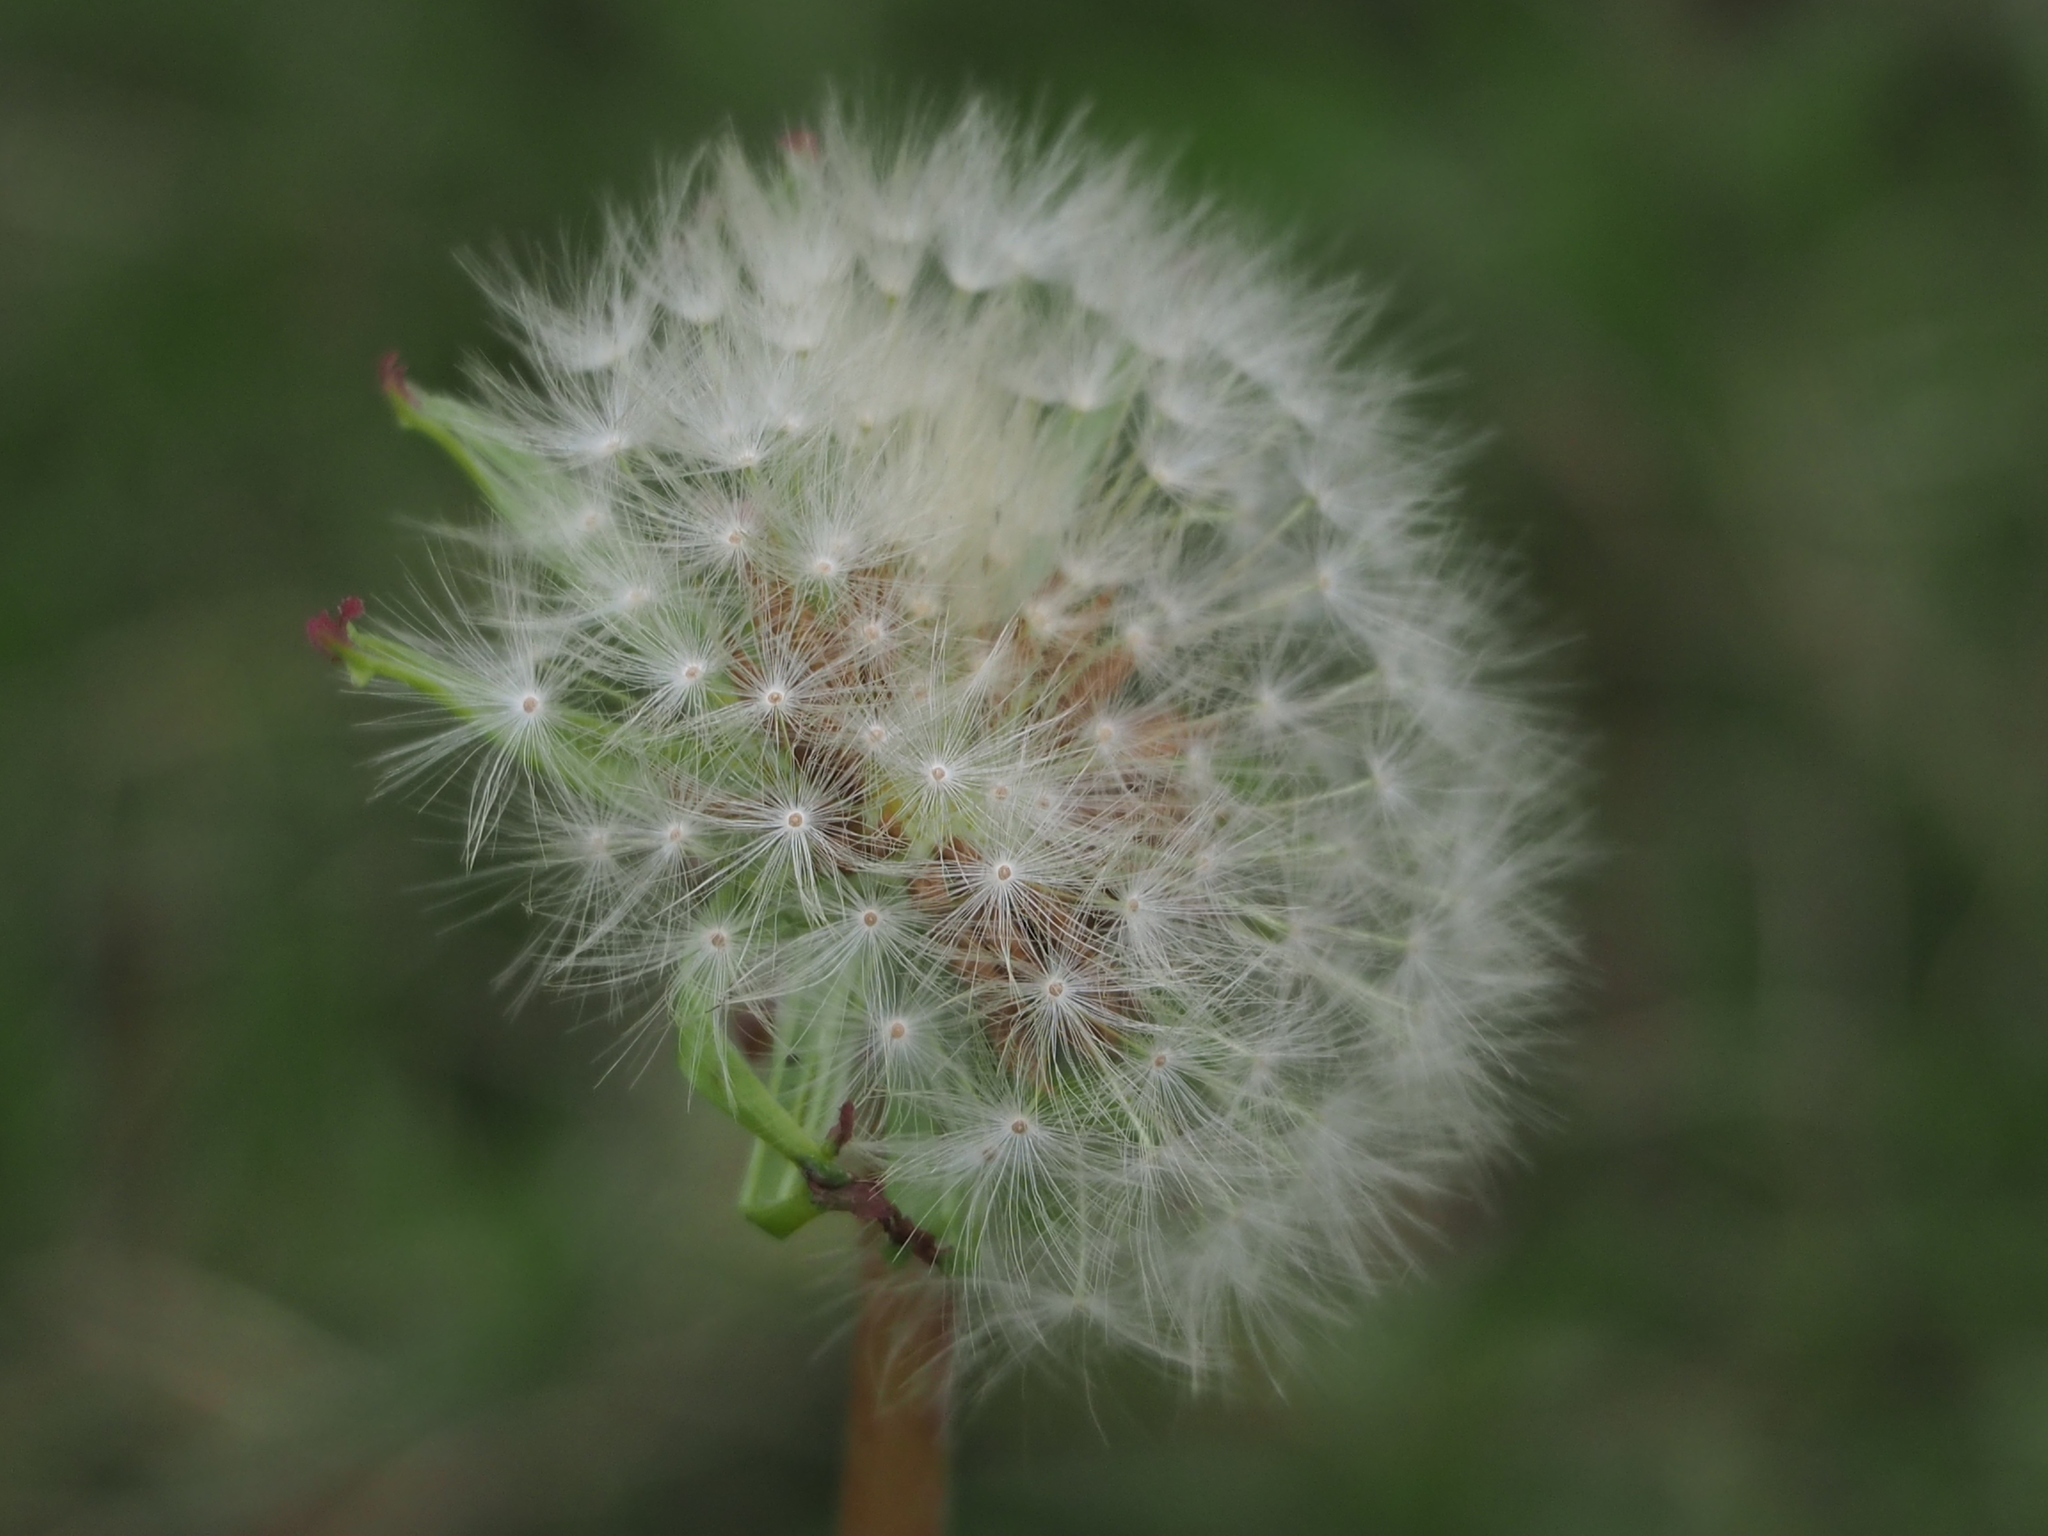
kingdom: Plantae
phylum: Tracheophyta
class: Magnoliopsida
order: Asterales
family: Asteraceae
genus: Taraxacum
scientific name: Taraxacum formosanum
